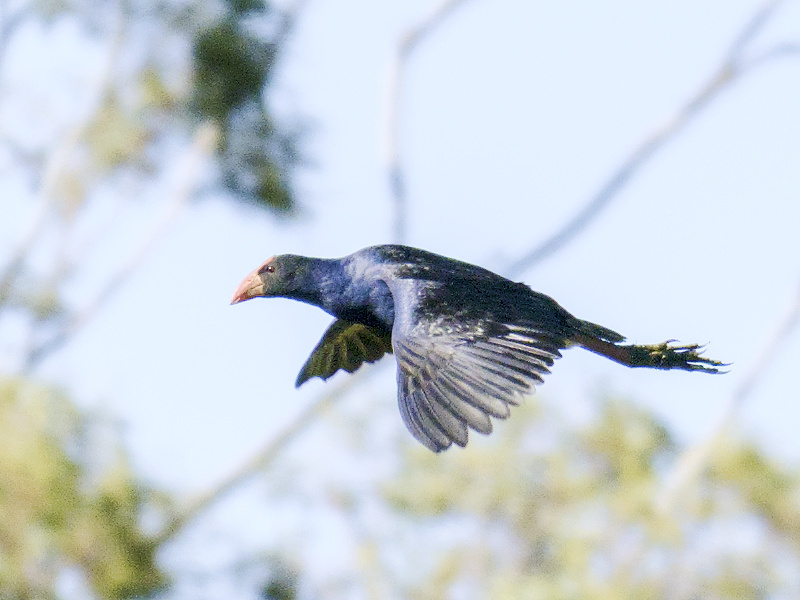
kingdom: Animalia
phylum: Chordata
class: Aves
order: Gruiformes
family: Rallidae
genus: Porphyrio
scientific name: Porphyrio melanotus
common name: Australasian swamphen
